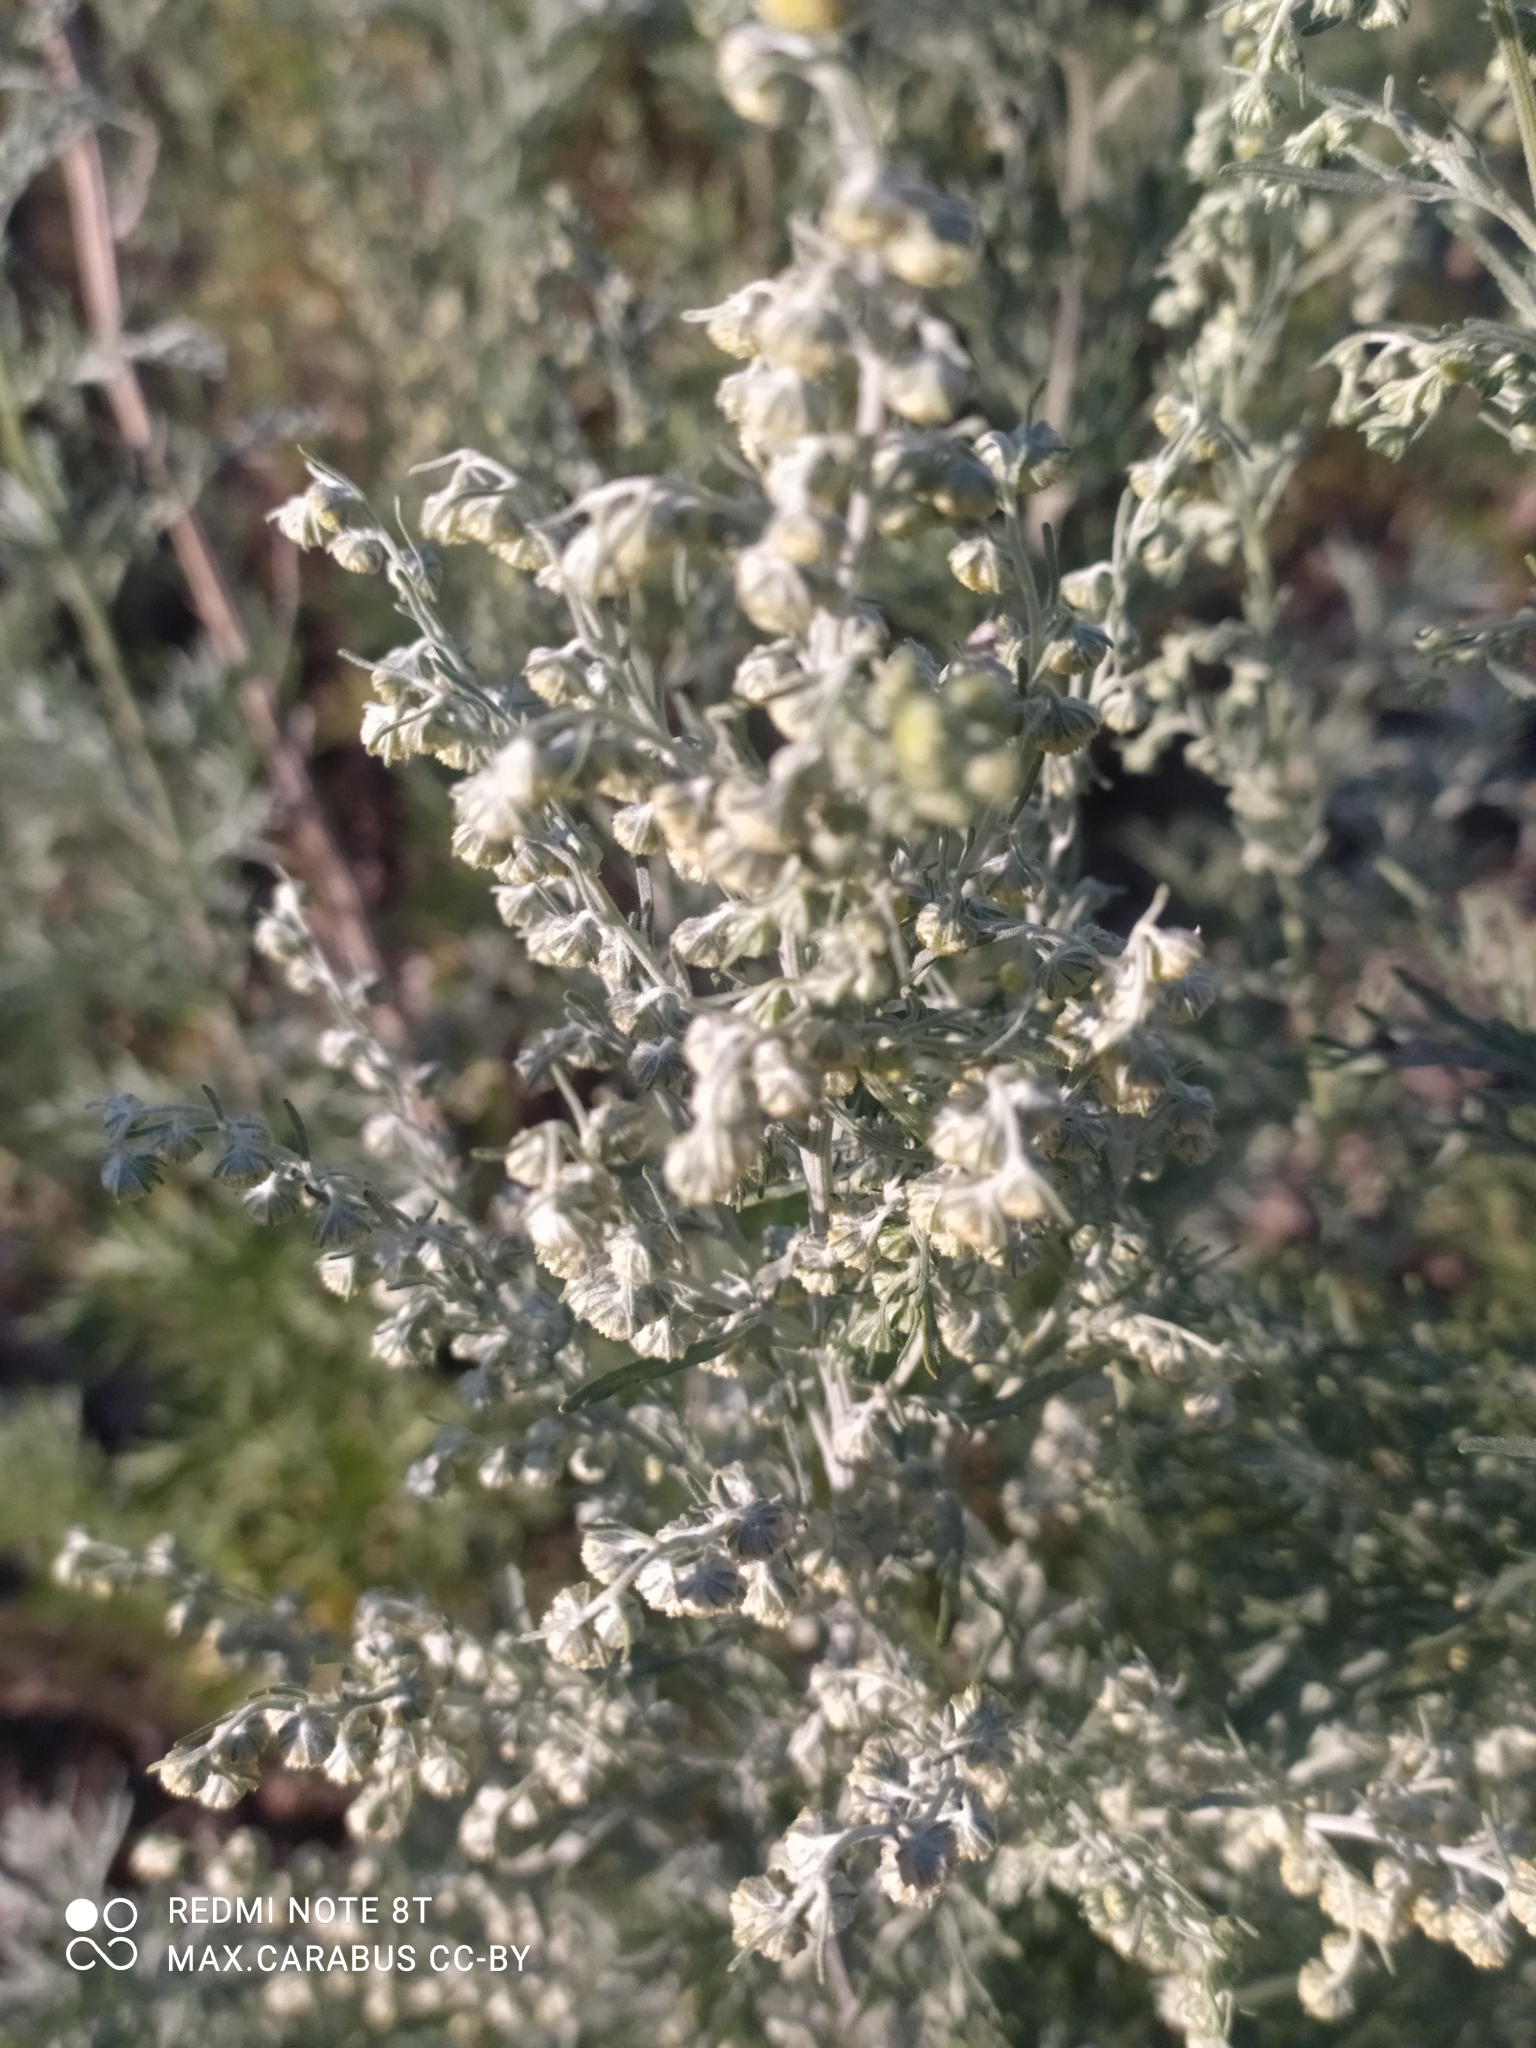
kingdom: Plantae
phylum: Tracheophyta
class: Magnoliopsida
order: Asterales
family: Asteraceae
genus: Artemisia
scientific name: Artemisia absinthium
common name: Wormwood
